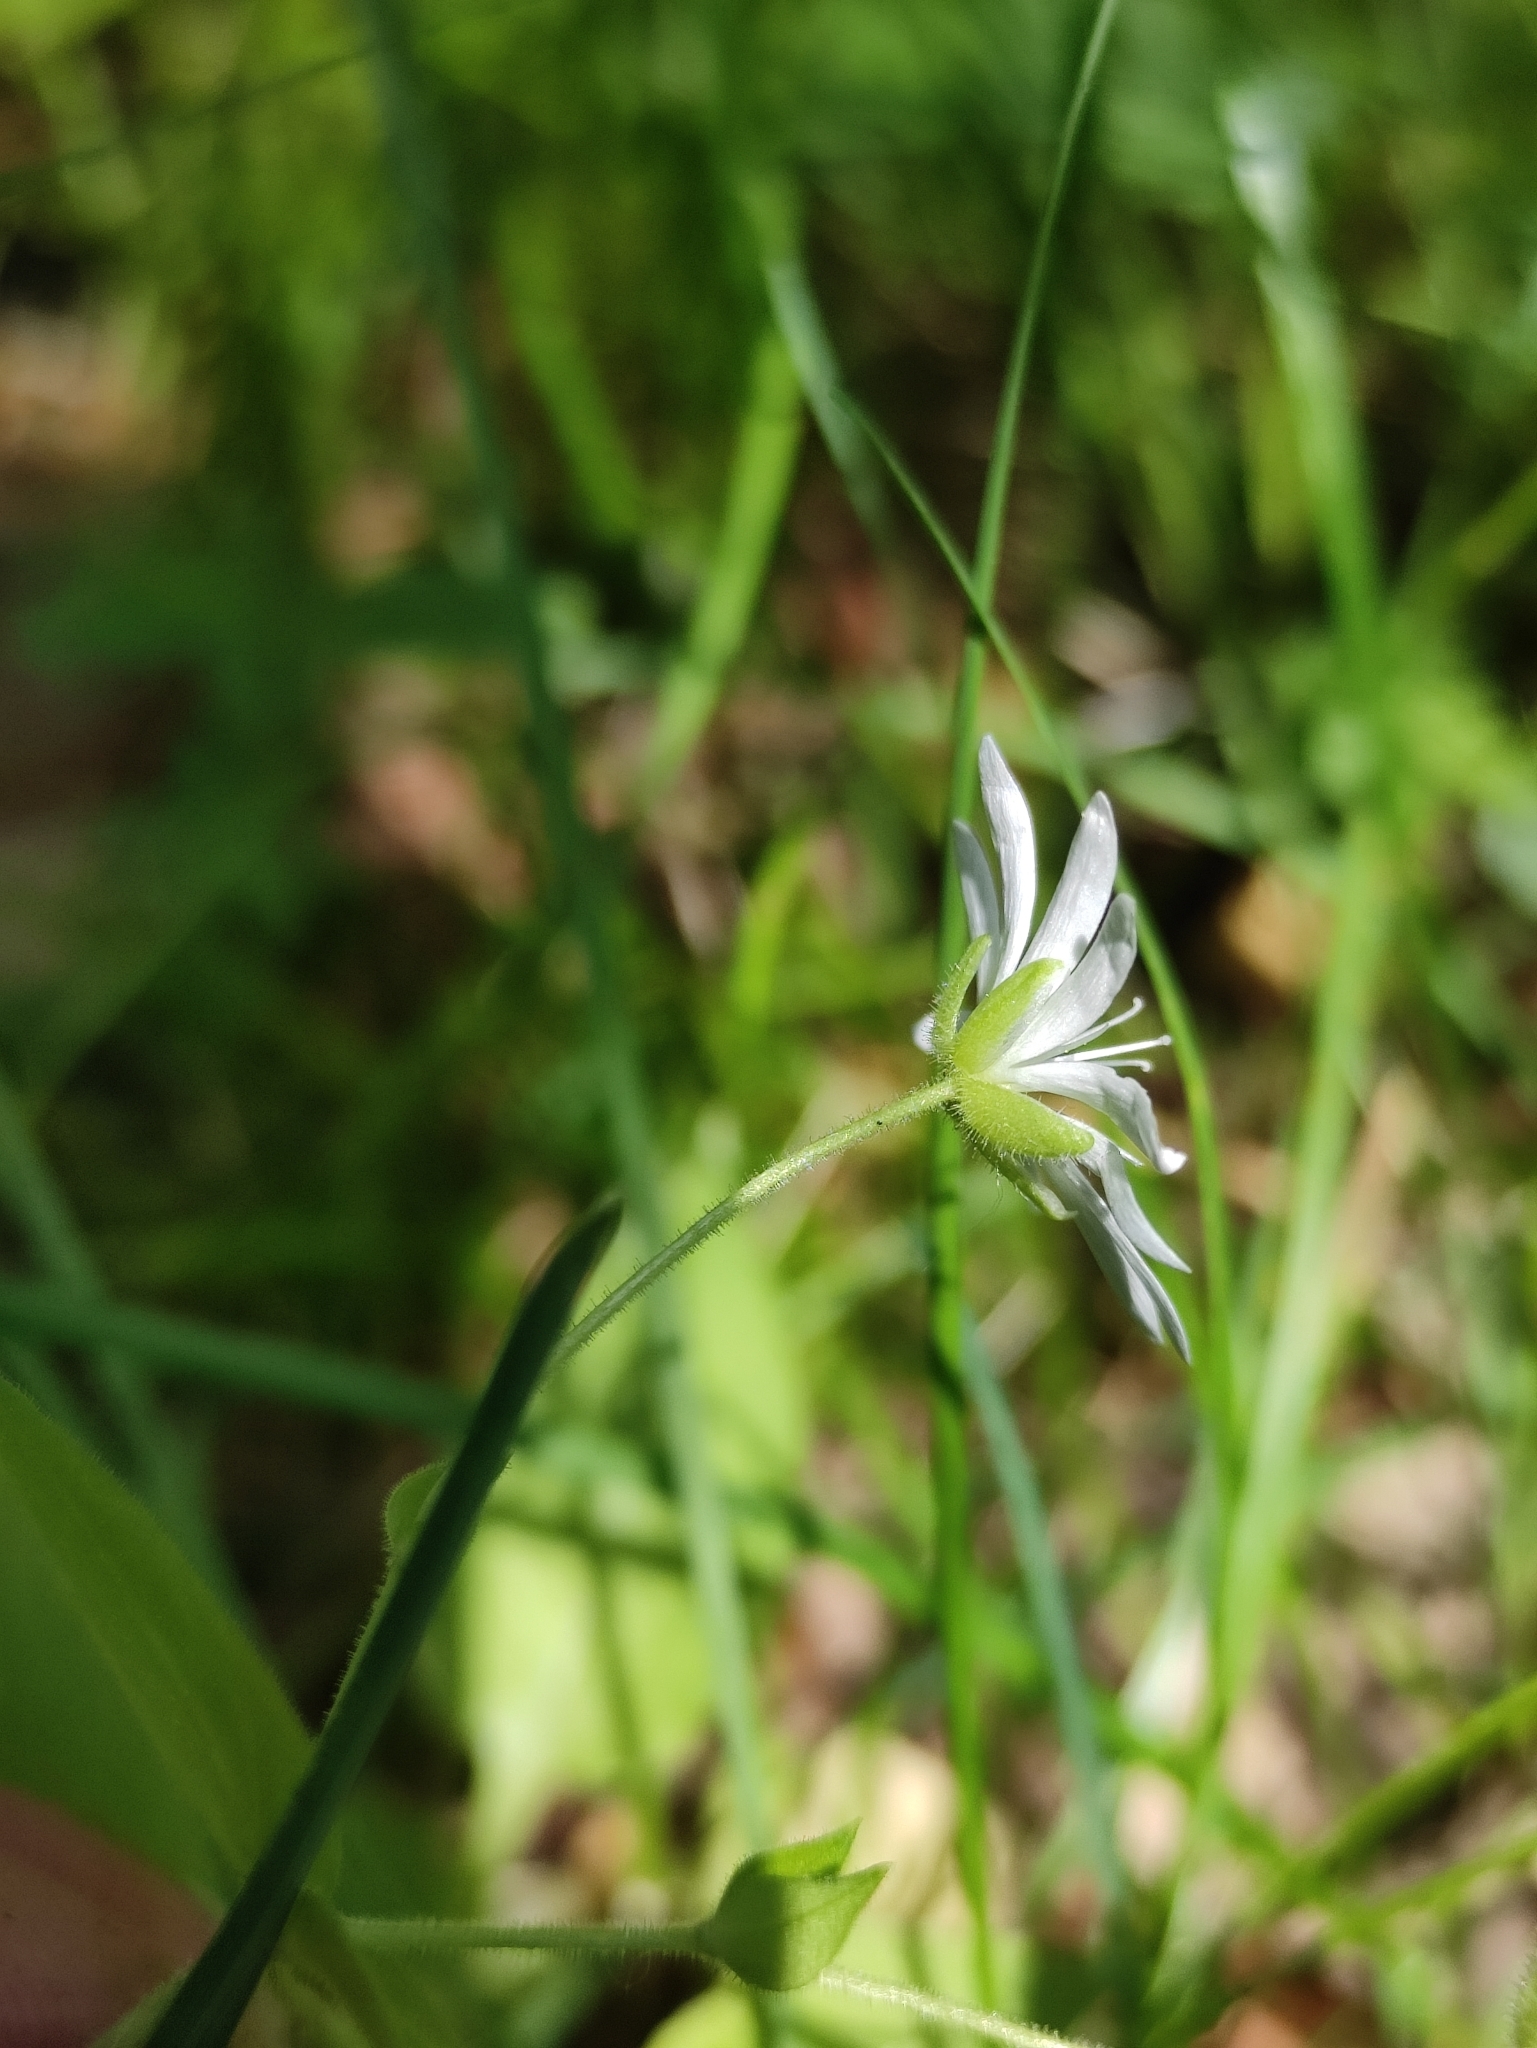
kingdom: Plantae
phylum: Tracheophyta
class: Magnoliopsida
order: Caryophyllales
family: Caryophyllaceae
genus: Stellaria
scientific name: Stellaria bungeana
